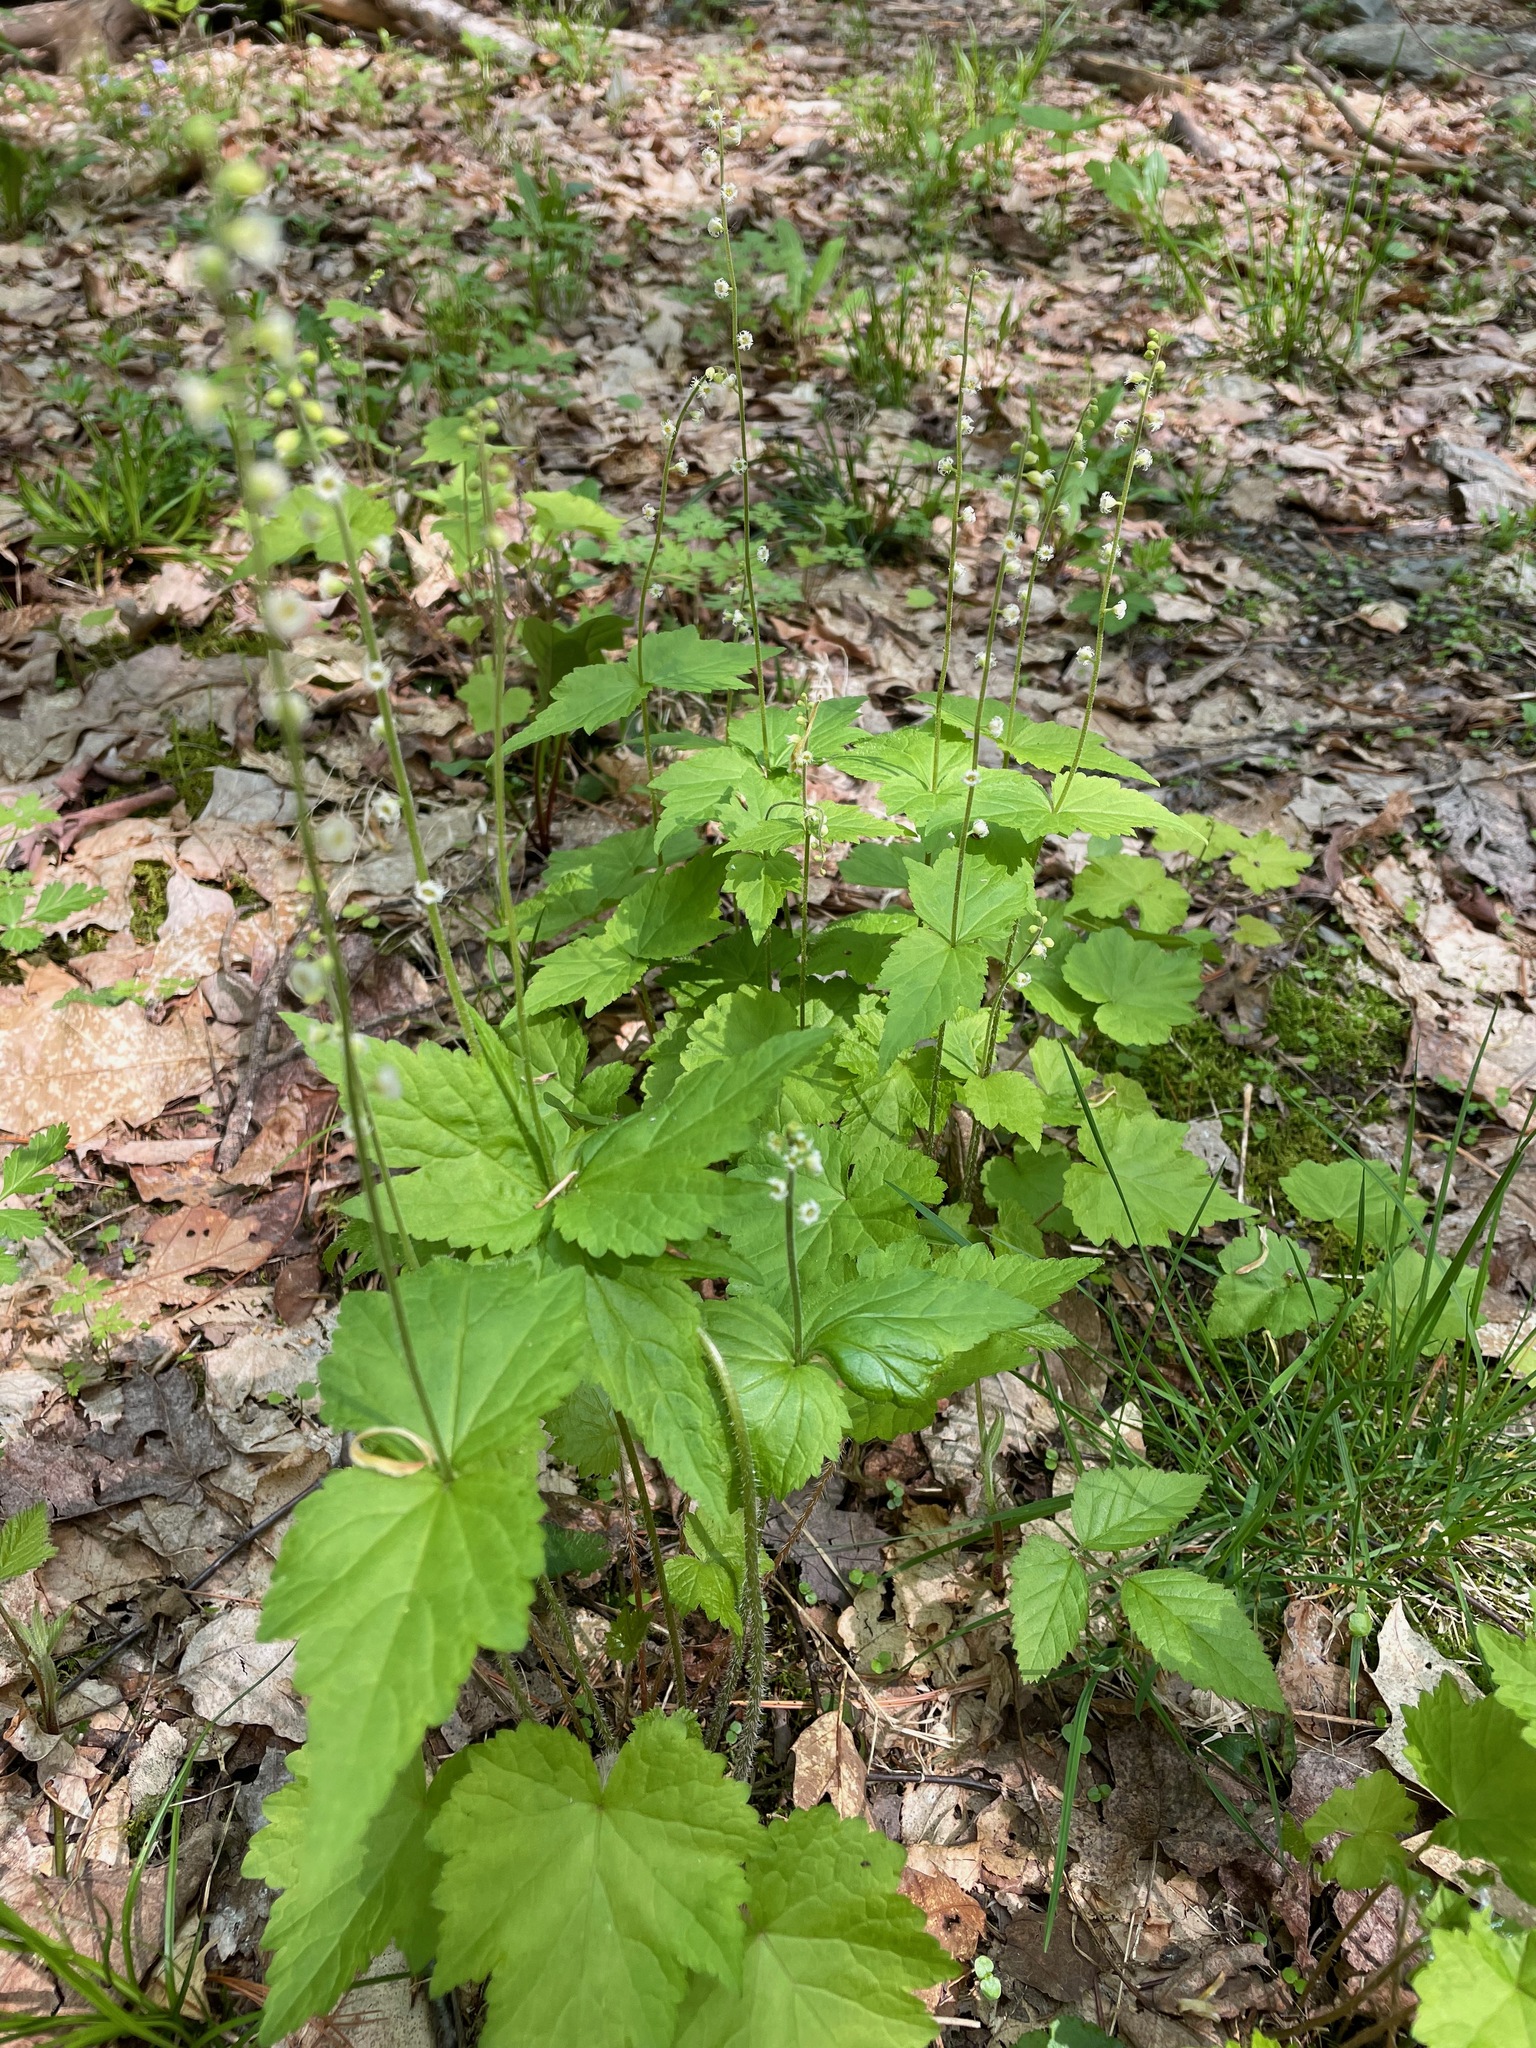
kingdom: Plantae
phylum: Tracheophyta
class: Magnoliopsida
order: Saxifragales
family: Saxifragaceae
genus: Mitella
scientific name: Mitella diphylla
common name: Coolwort
